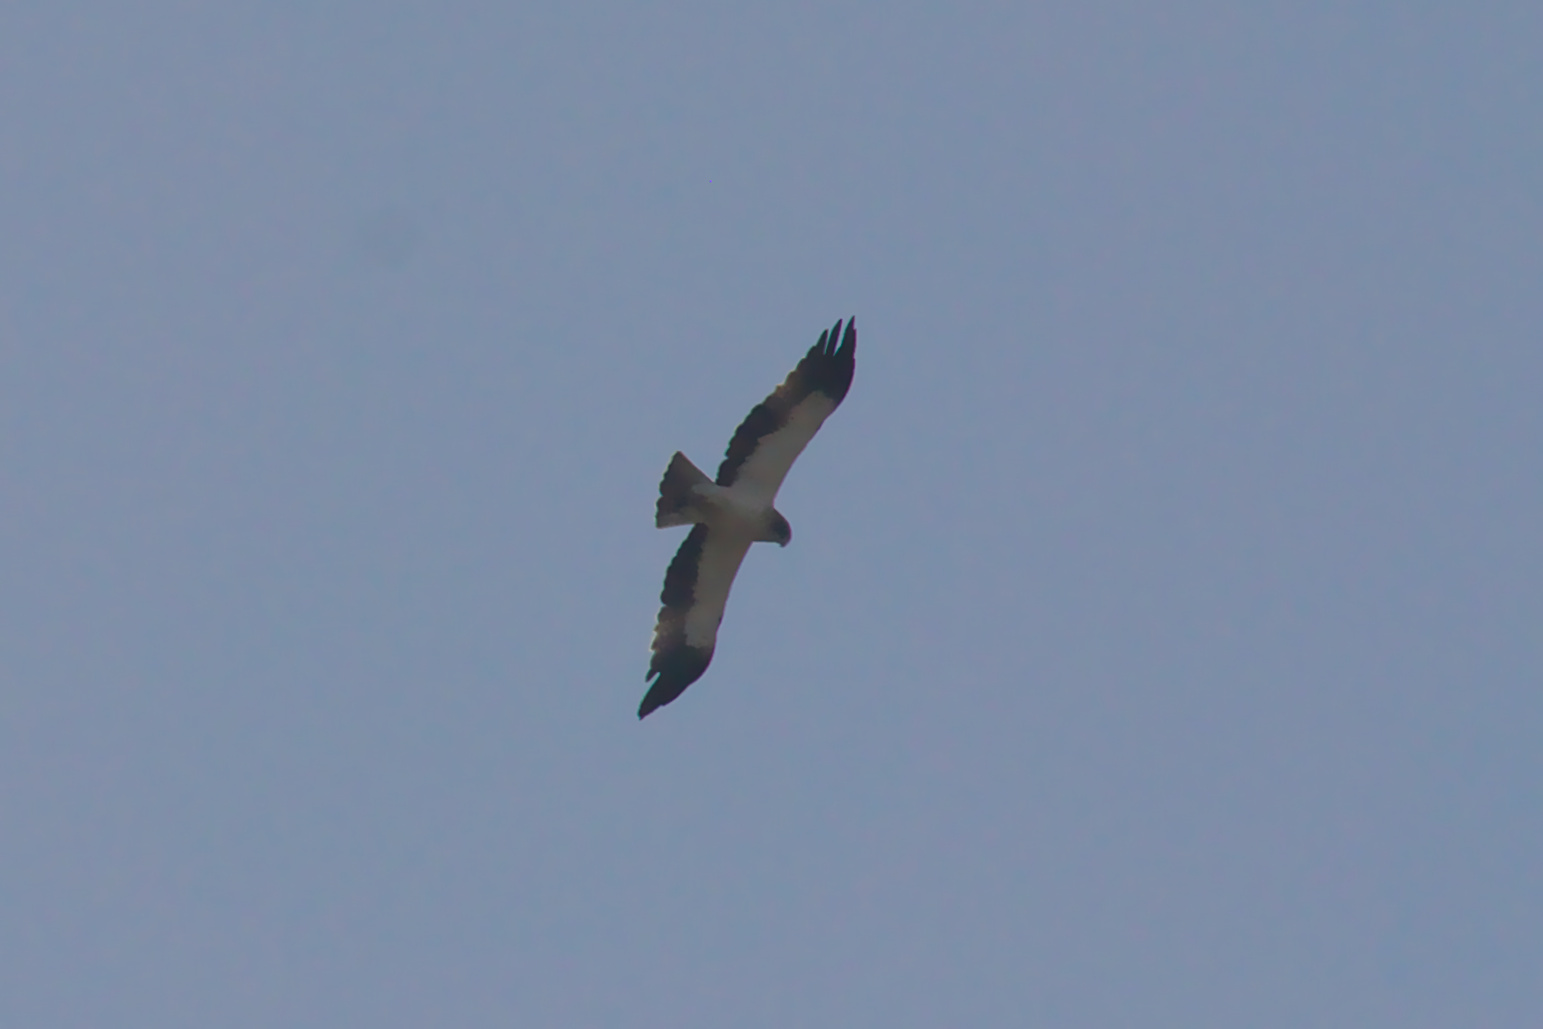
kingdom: Animalia
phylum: Chordata
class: Aves
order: Accipitriformes
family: Accipitridae
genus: Hieraaetus
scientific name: Hieraaetus pennatus
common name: Booted eagle
